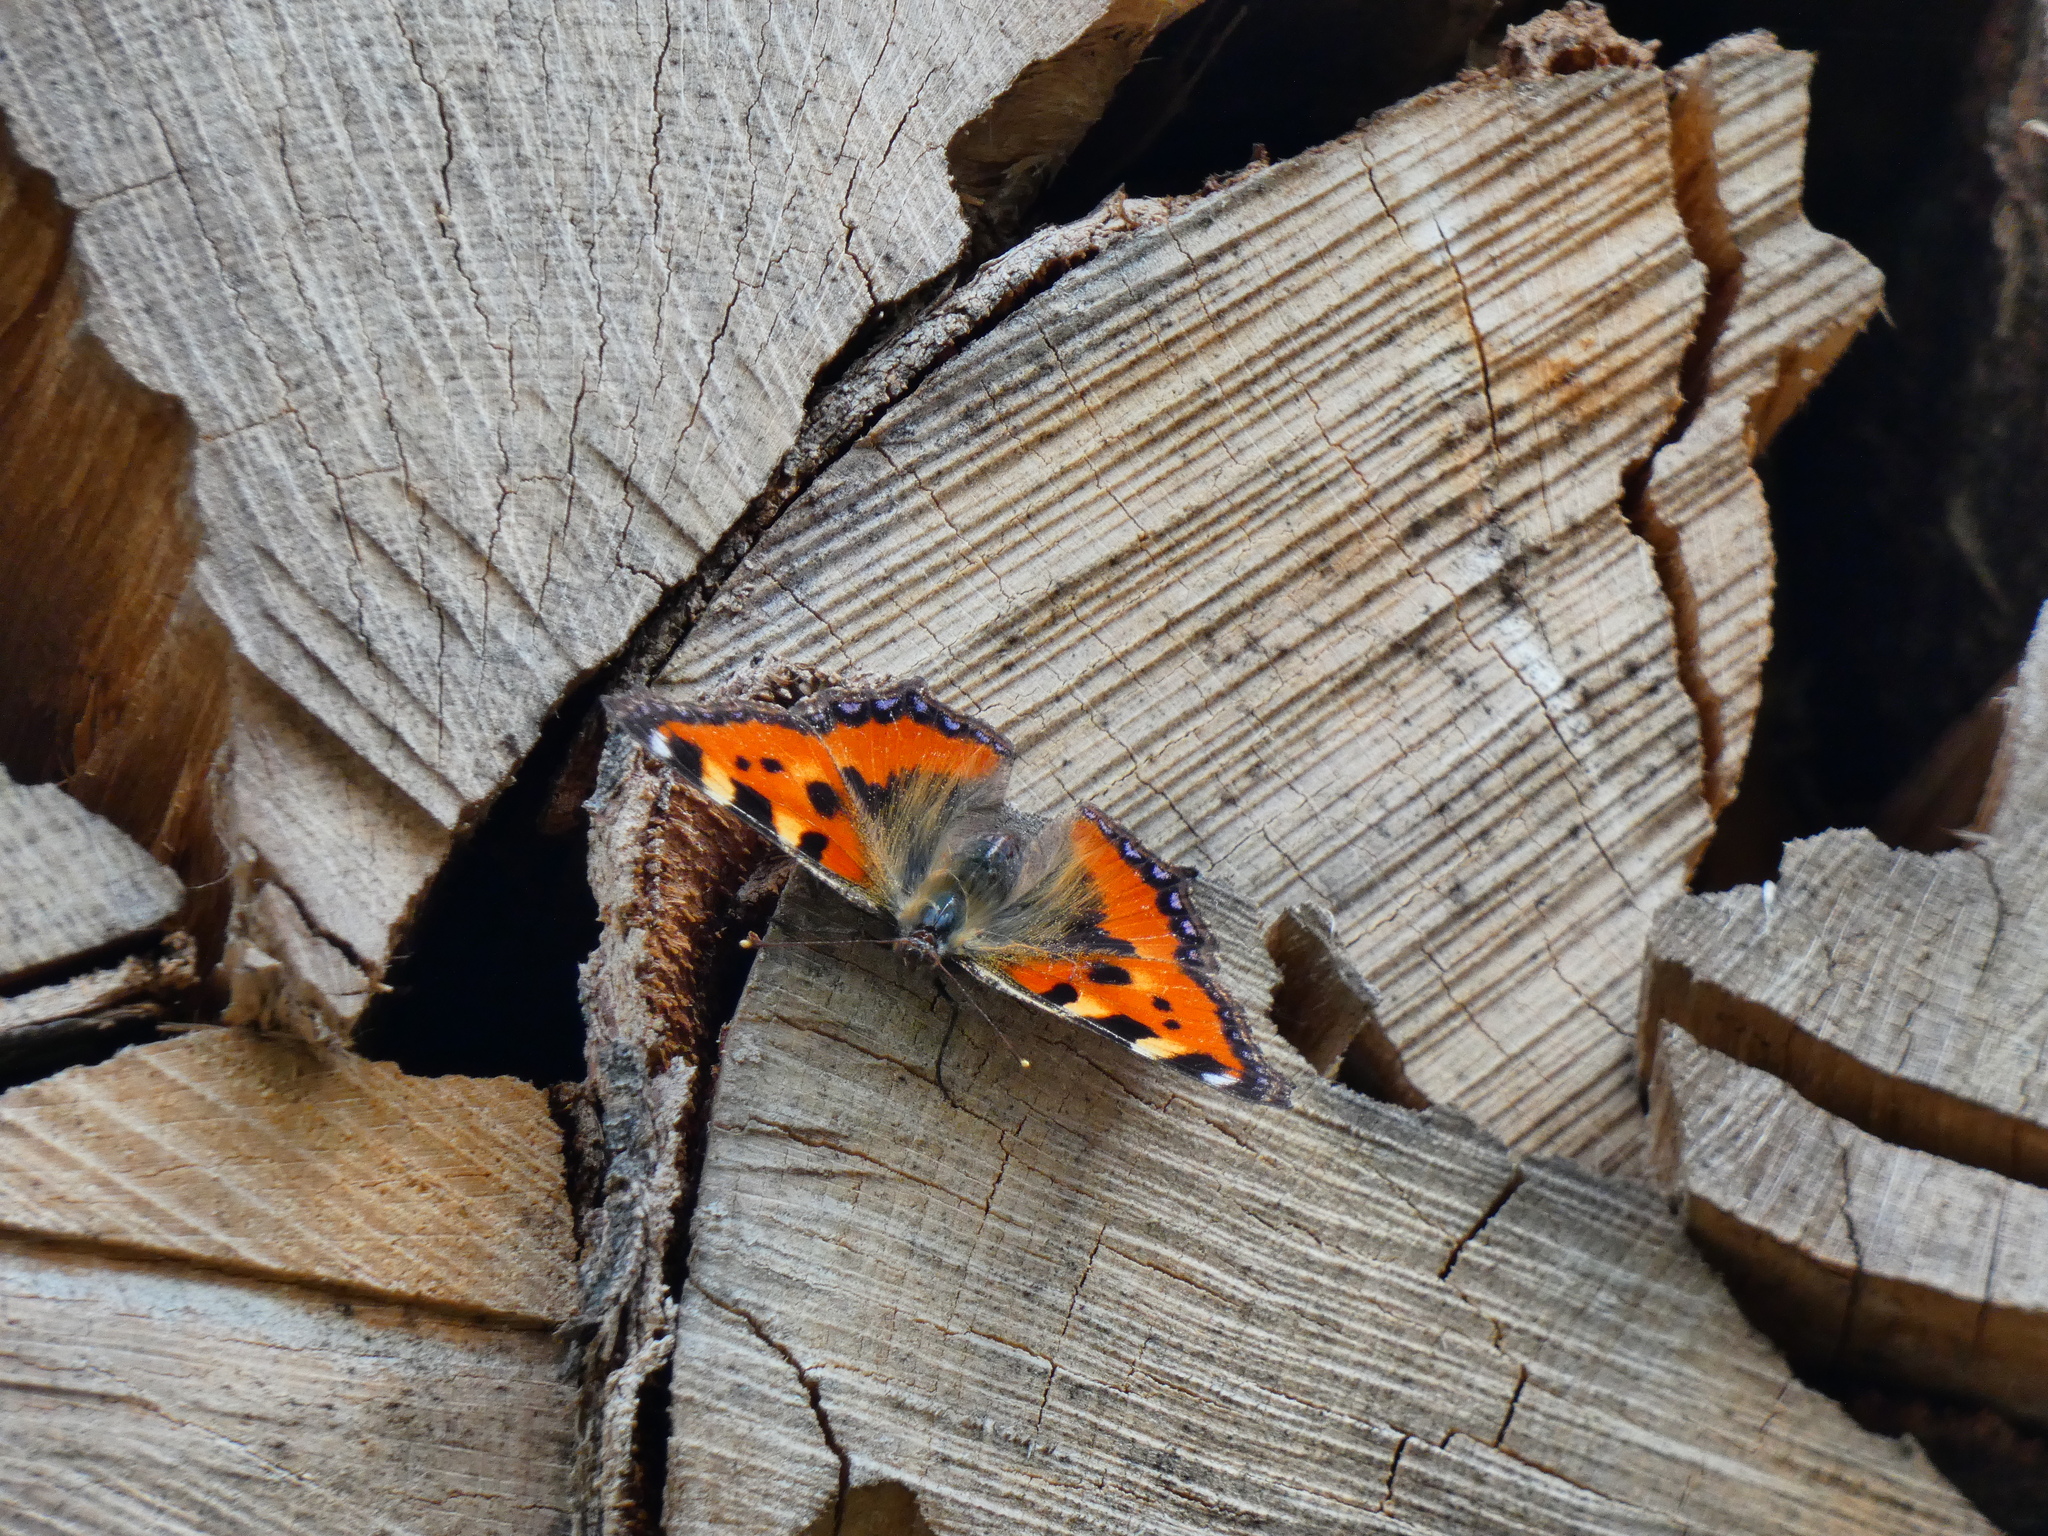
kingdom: Animalia
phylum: Arthropoda
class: Insecta
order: Lepidoptera
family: Nymphalidae
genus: Aglais
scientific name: Aglais urticae
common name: Small tortoiseshell
